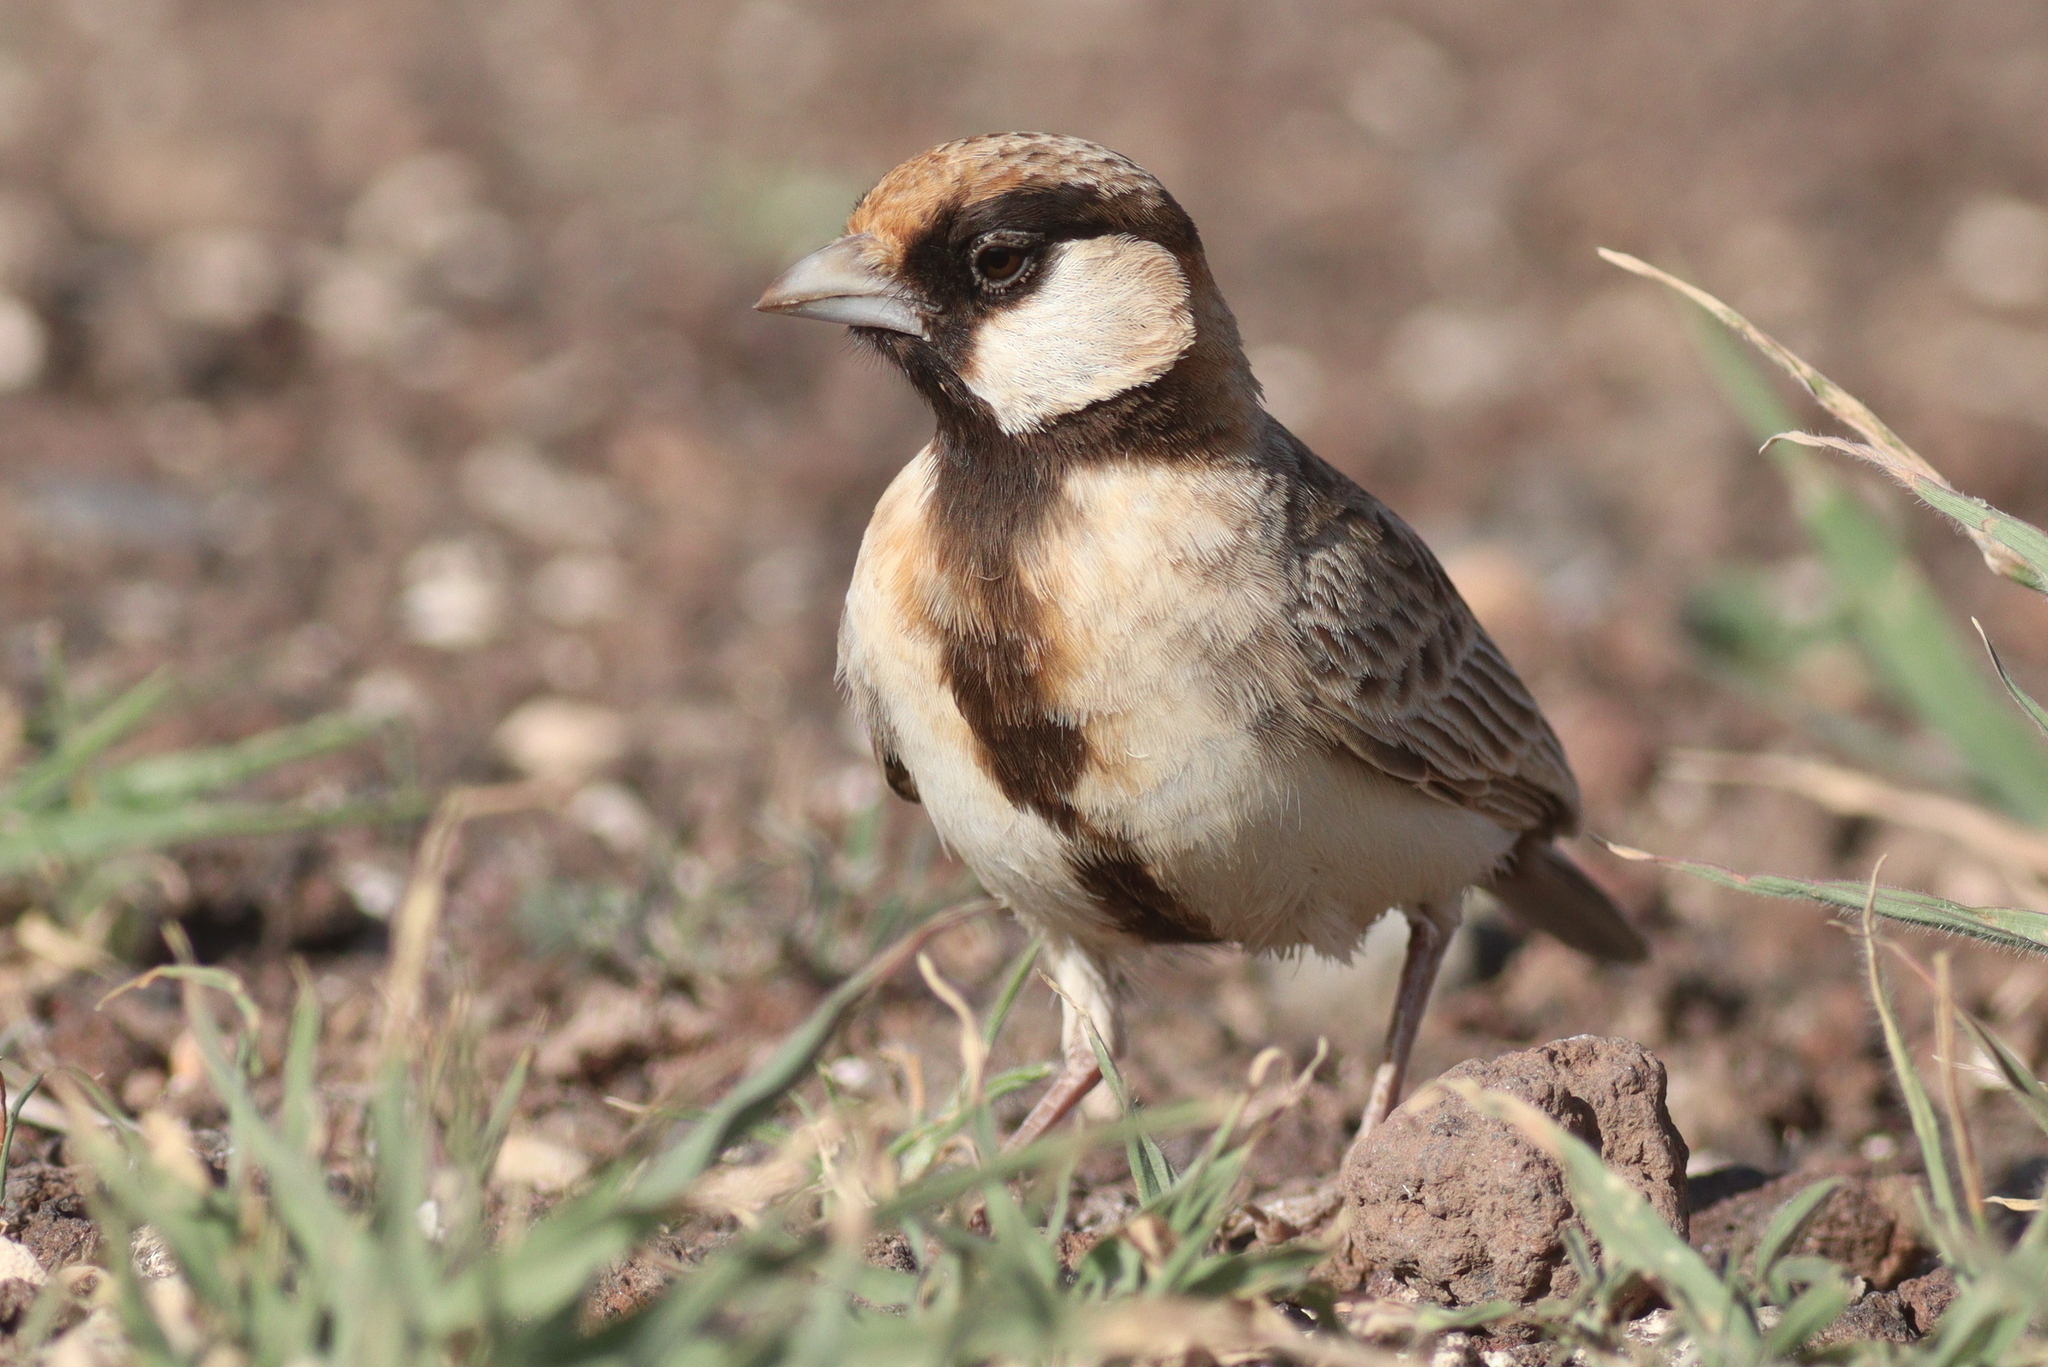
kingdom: Animalia
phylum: Chordata
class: Aves
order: Passeriformes
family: Alaudidae
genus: Eremopterix
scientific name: Eremopterix leucopareia
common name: Fischer's sparrow-lark
